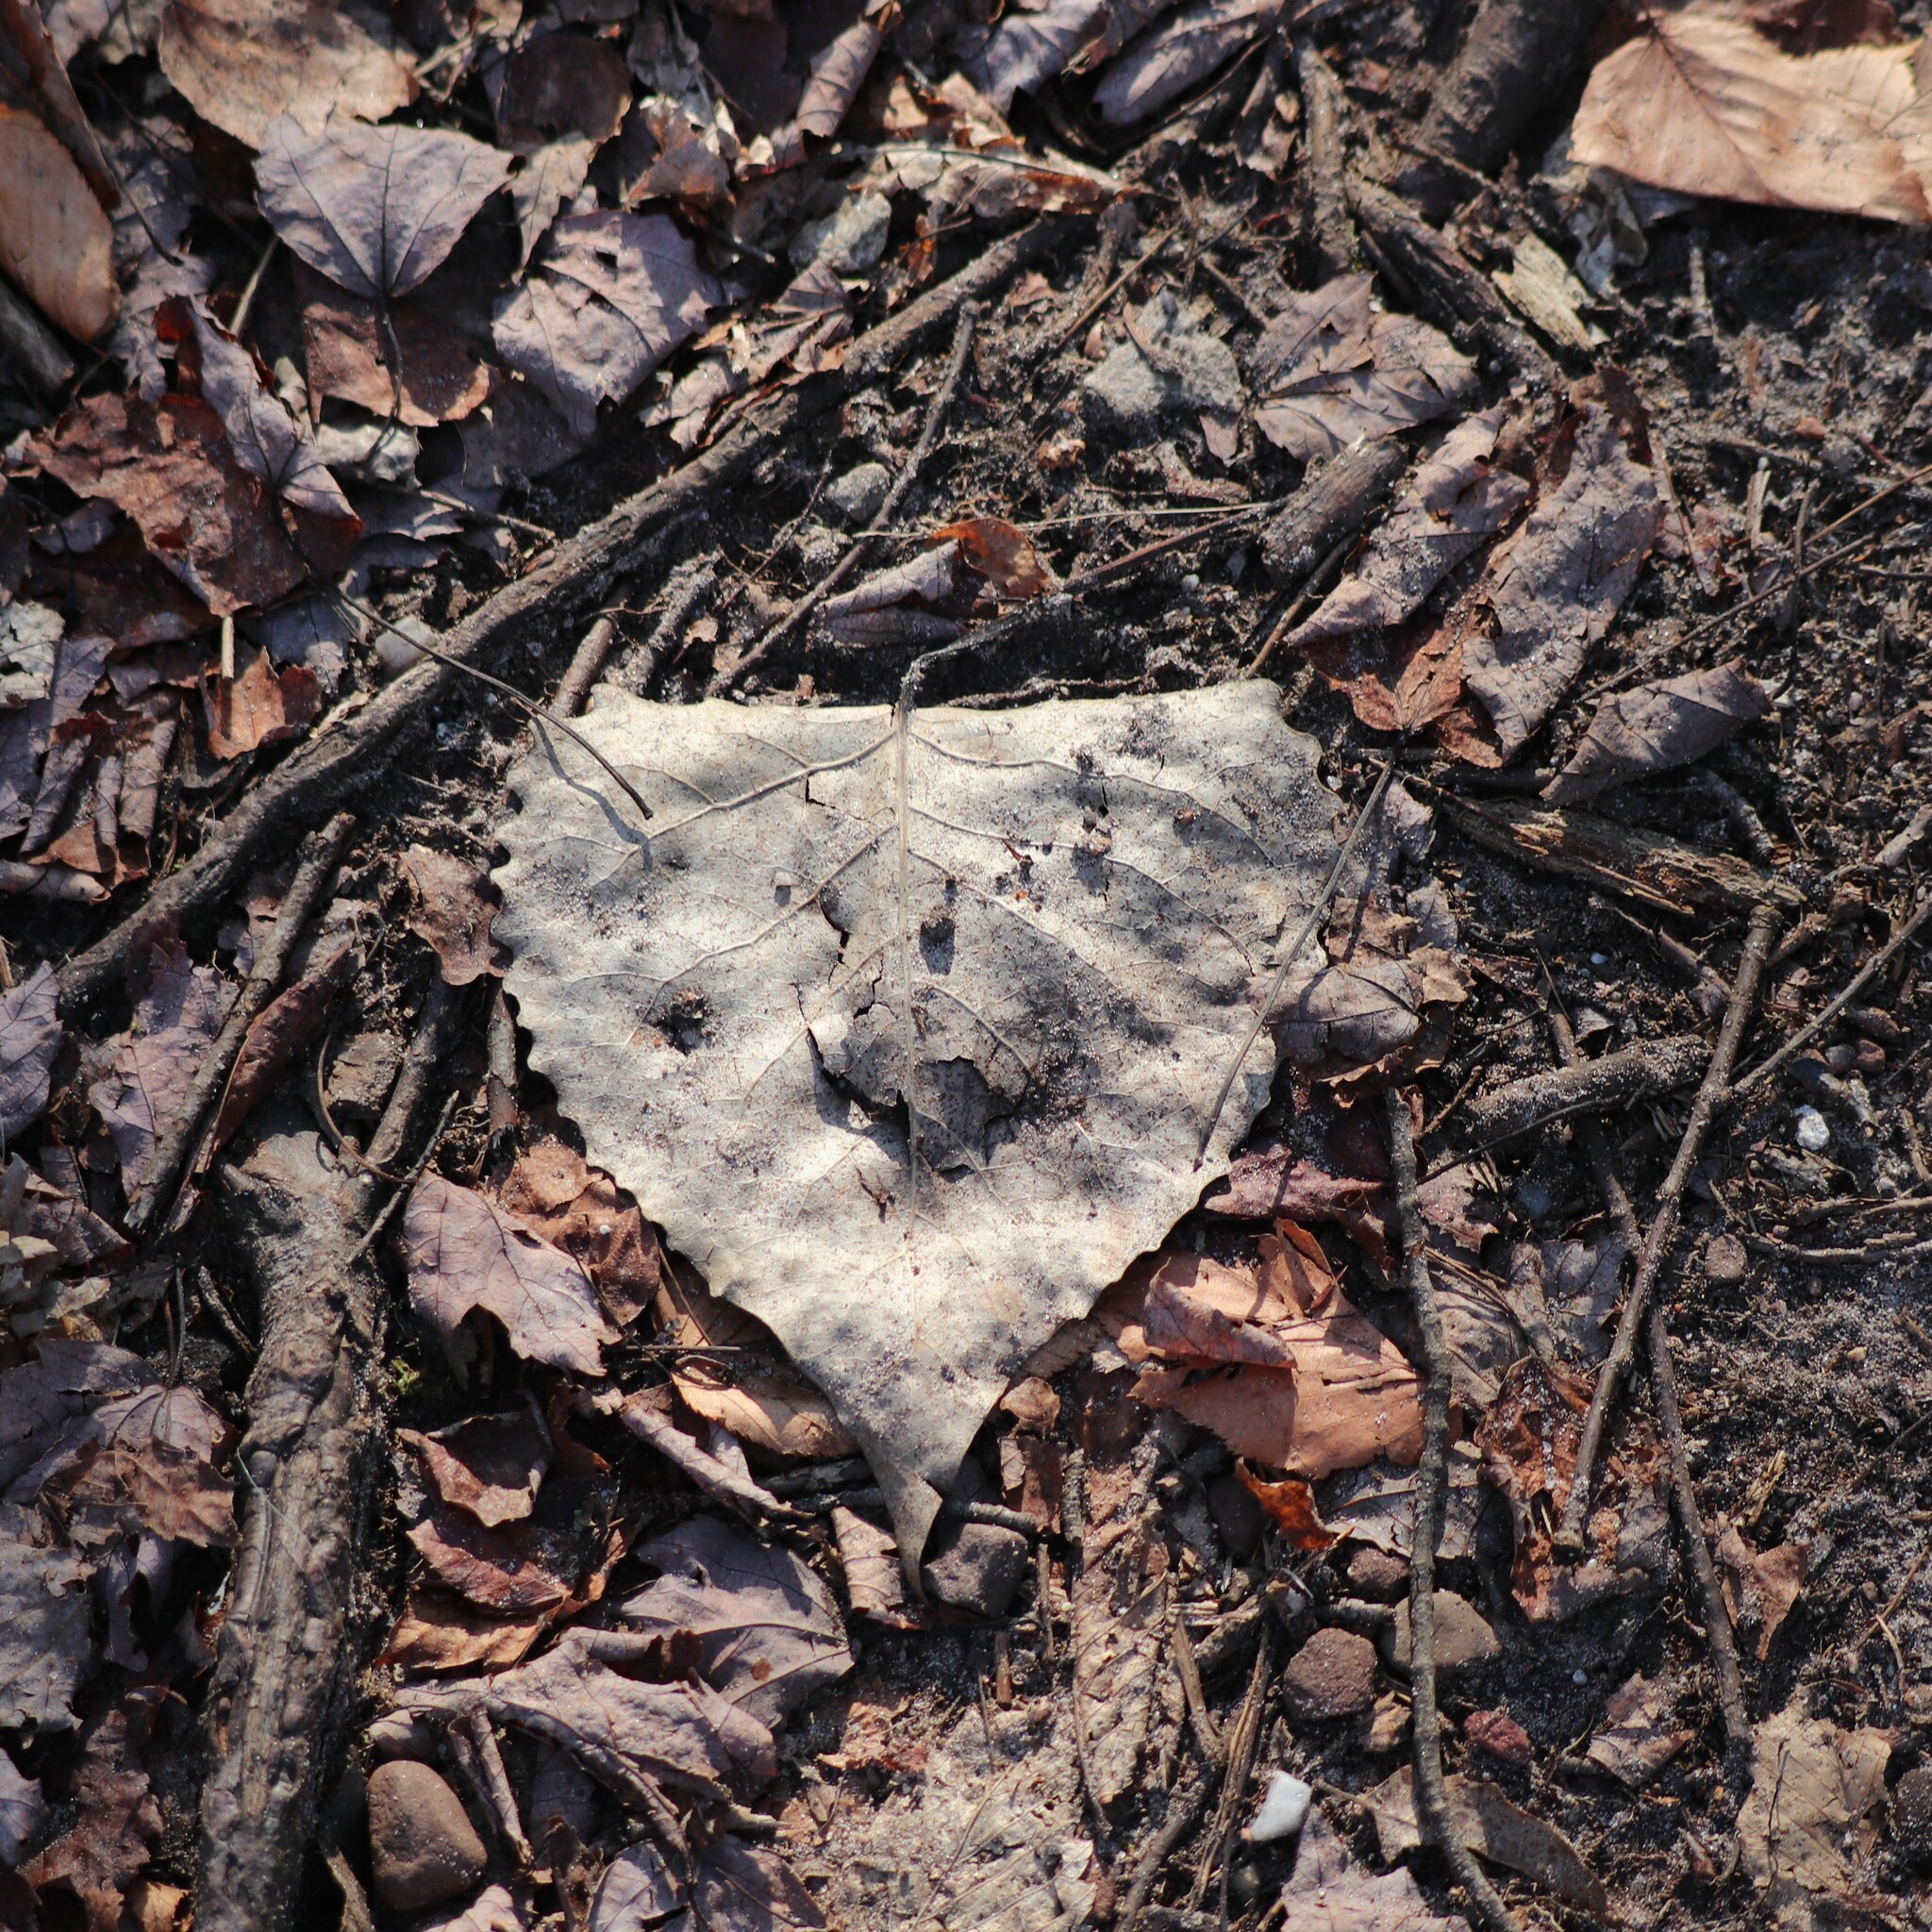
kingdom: Plantae
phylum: Tracheophyta
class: Magnoliopsida
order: Malpighiales
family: Salicaceae
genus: Populus
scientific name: Populus deltoides
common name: Eastern cottonwood
